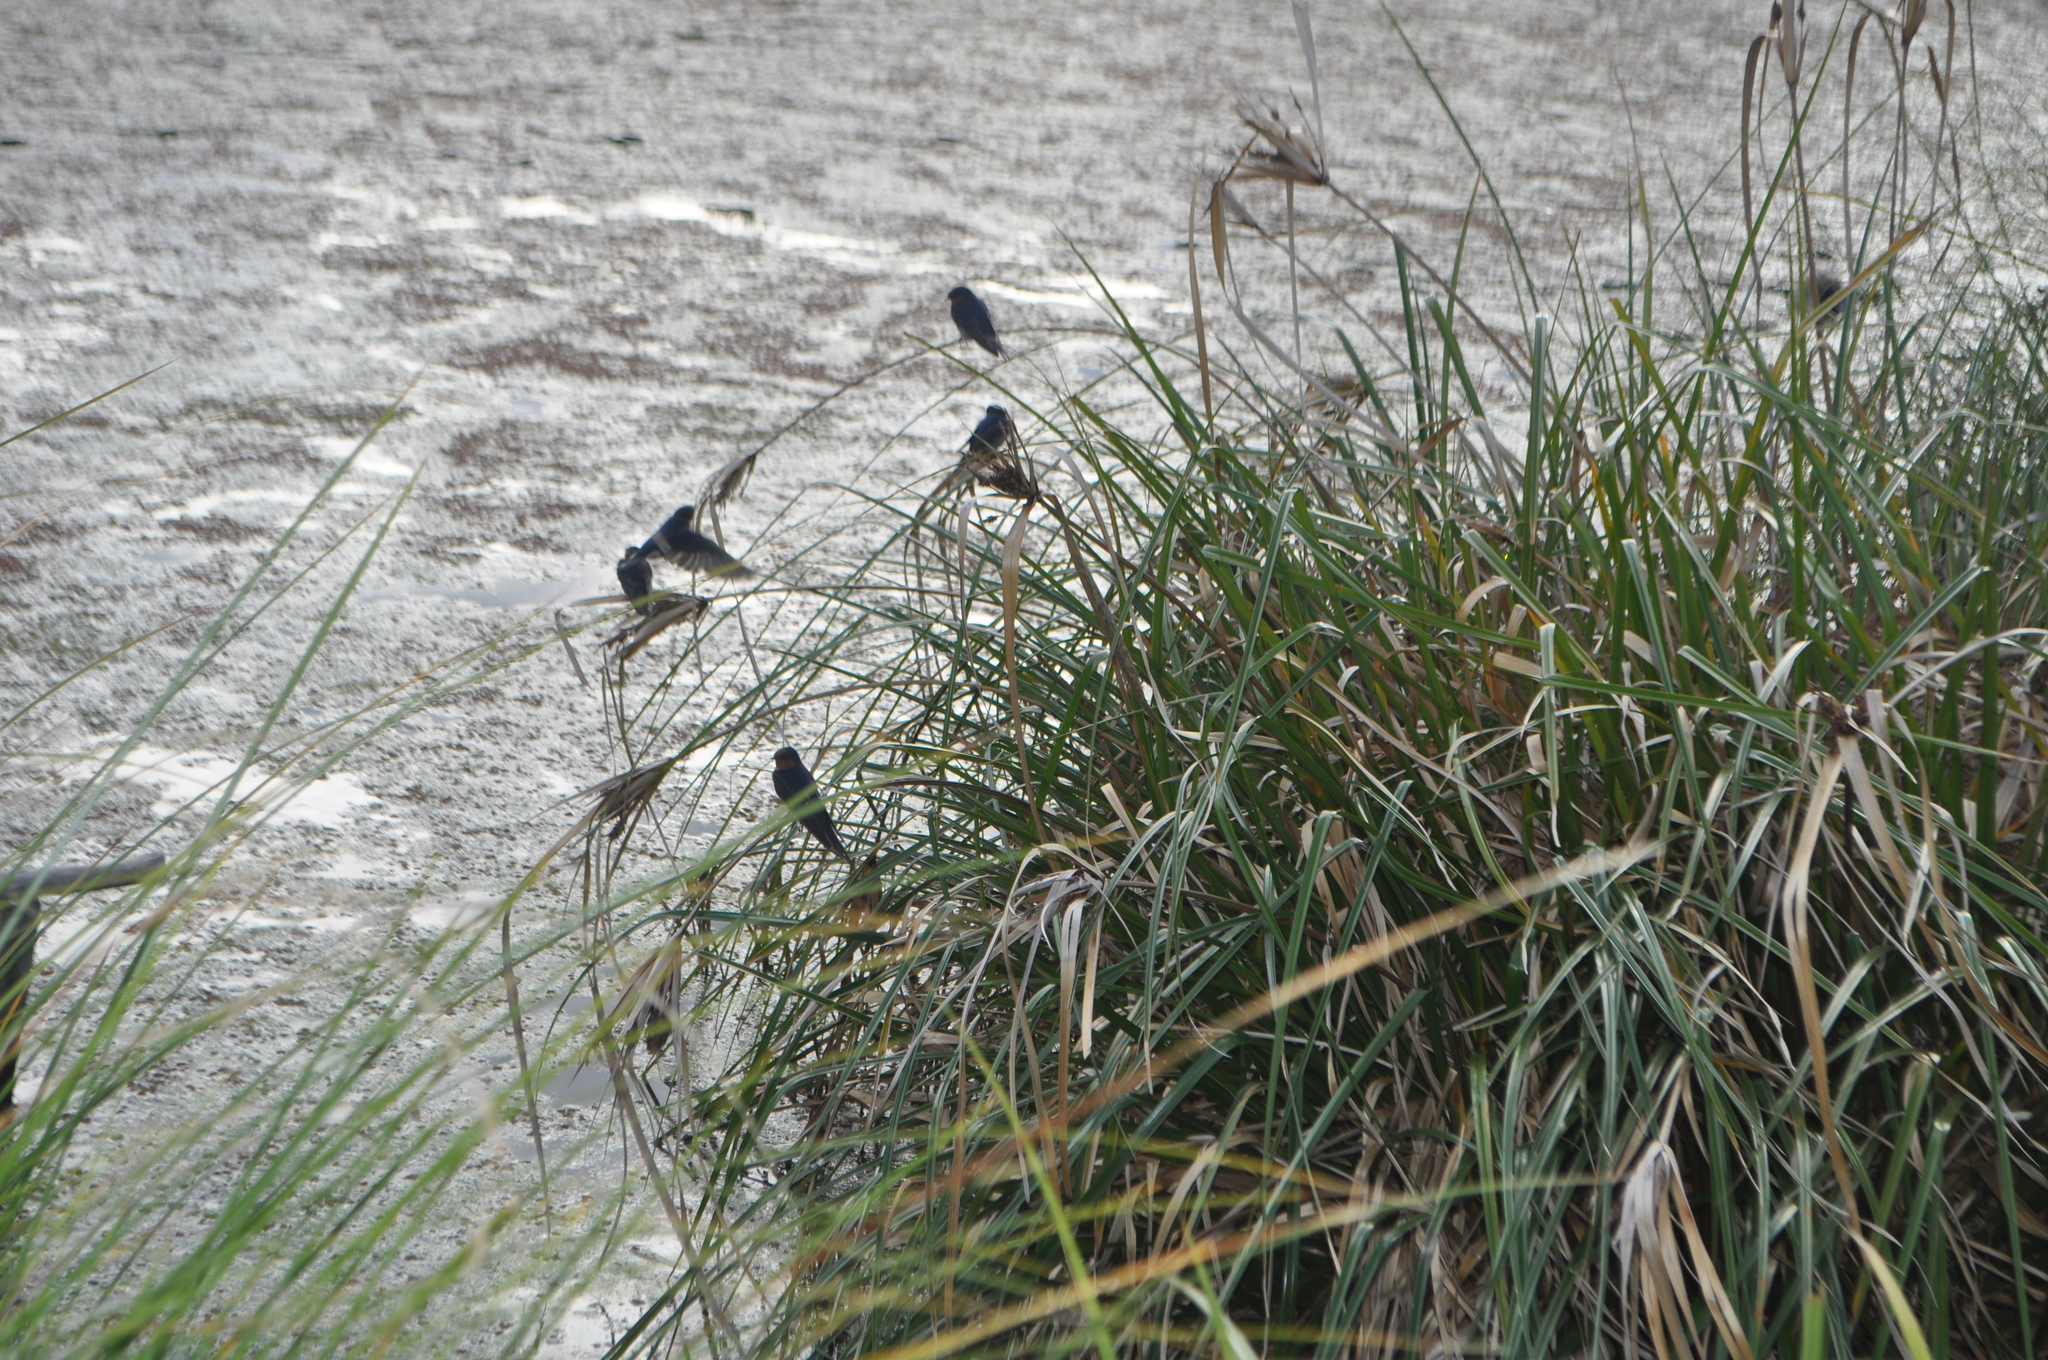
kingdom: Animalia
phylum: Chordata
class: Aves
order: Passeriformes
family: Hirundinidae
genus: Hirundo
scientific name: Hirundo neoxena
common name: Welcome swallow
